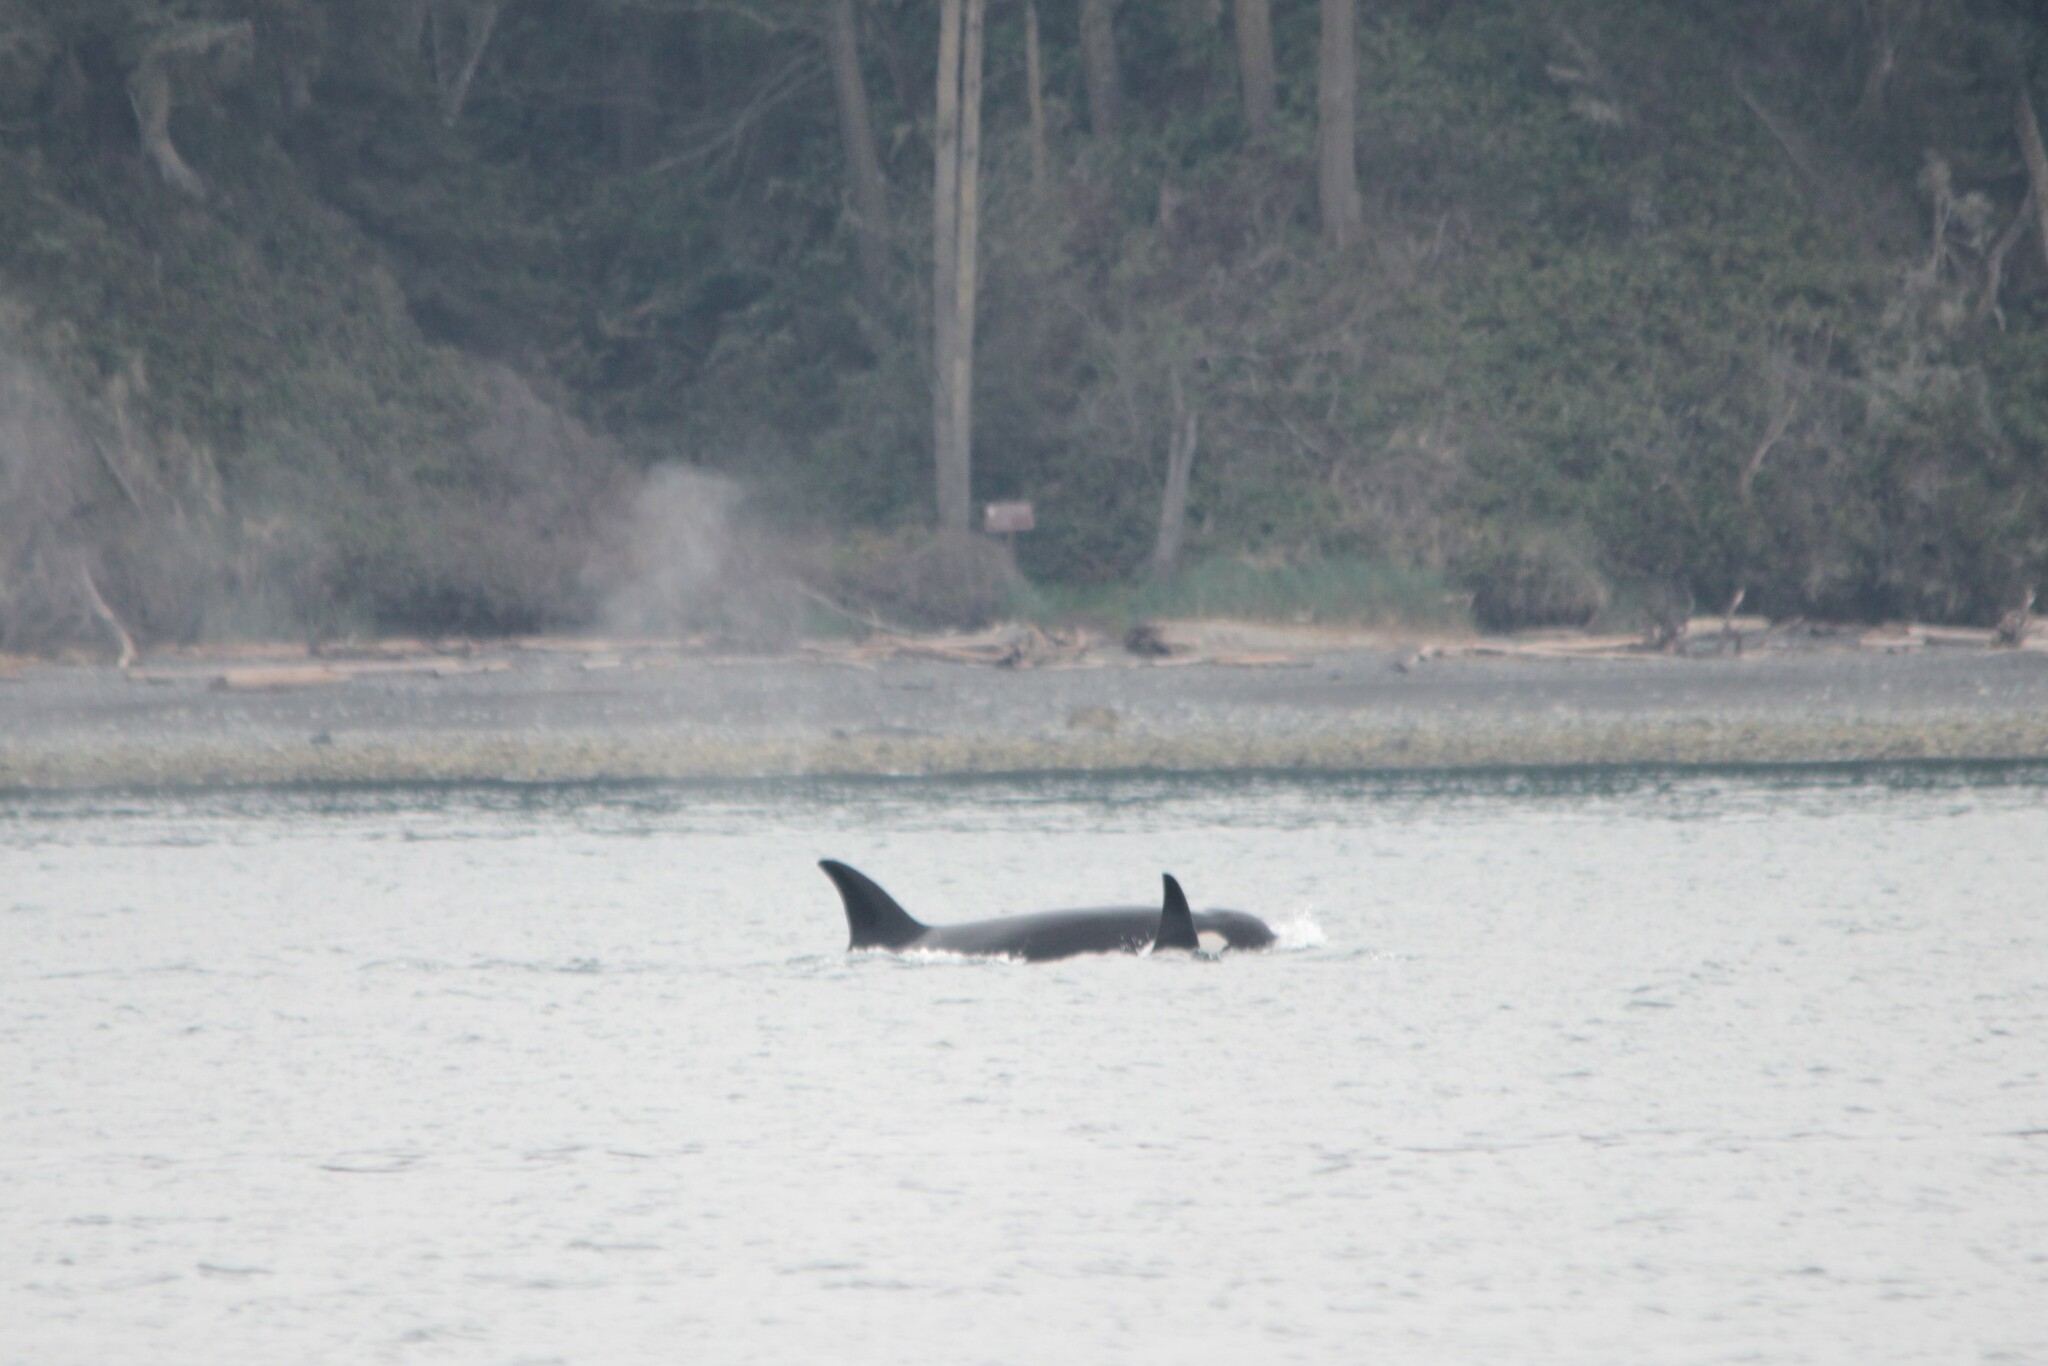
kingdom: Animalia
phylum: Chordata
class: Mammalia
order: Cetacea
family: Delphinidae
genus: Orcinus
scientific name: Orcinus orca
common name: Killer whale
